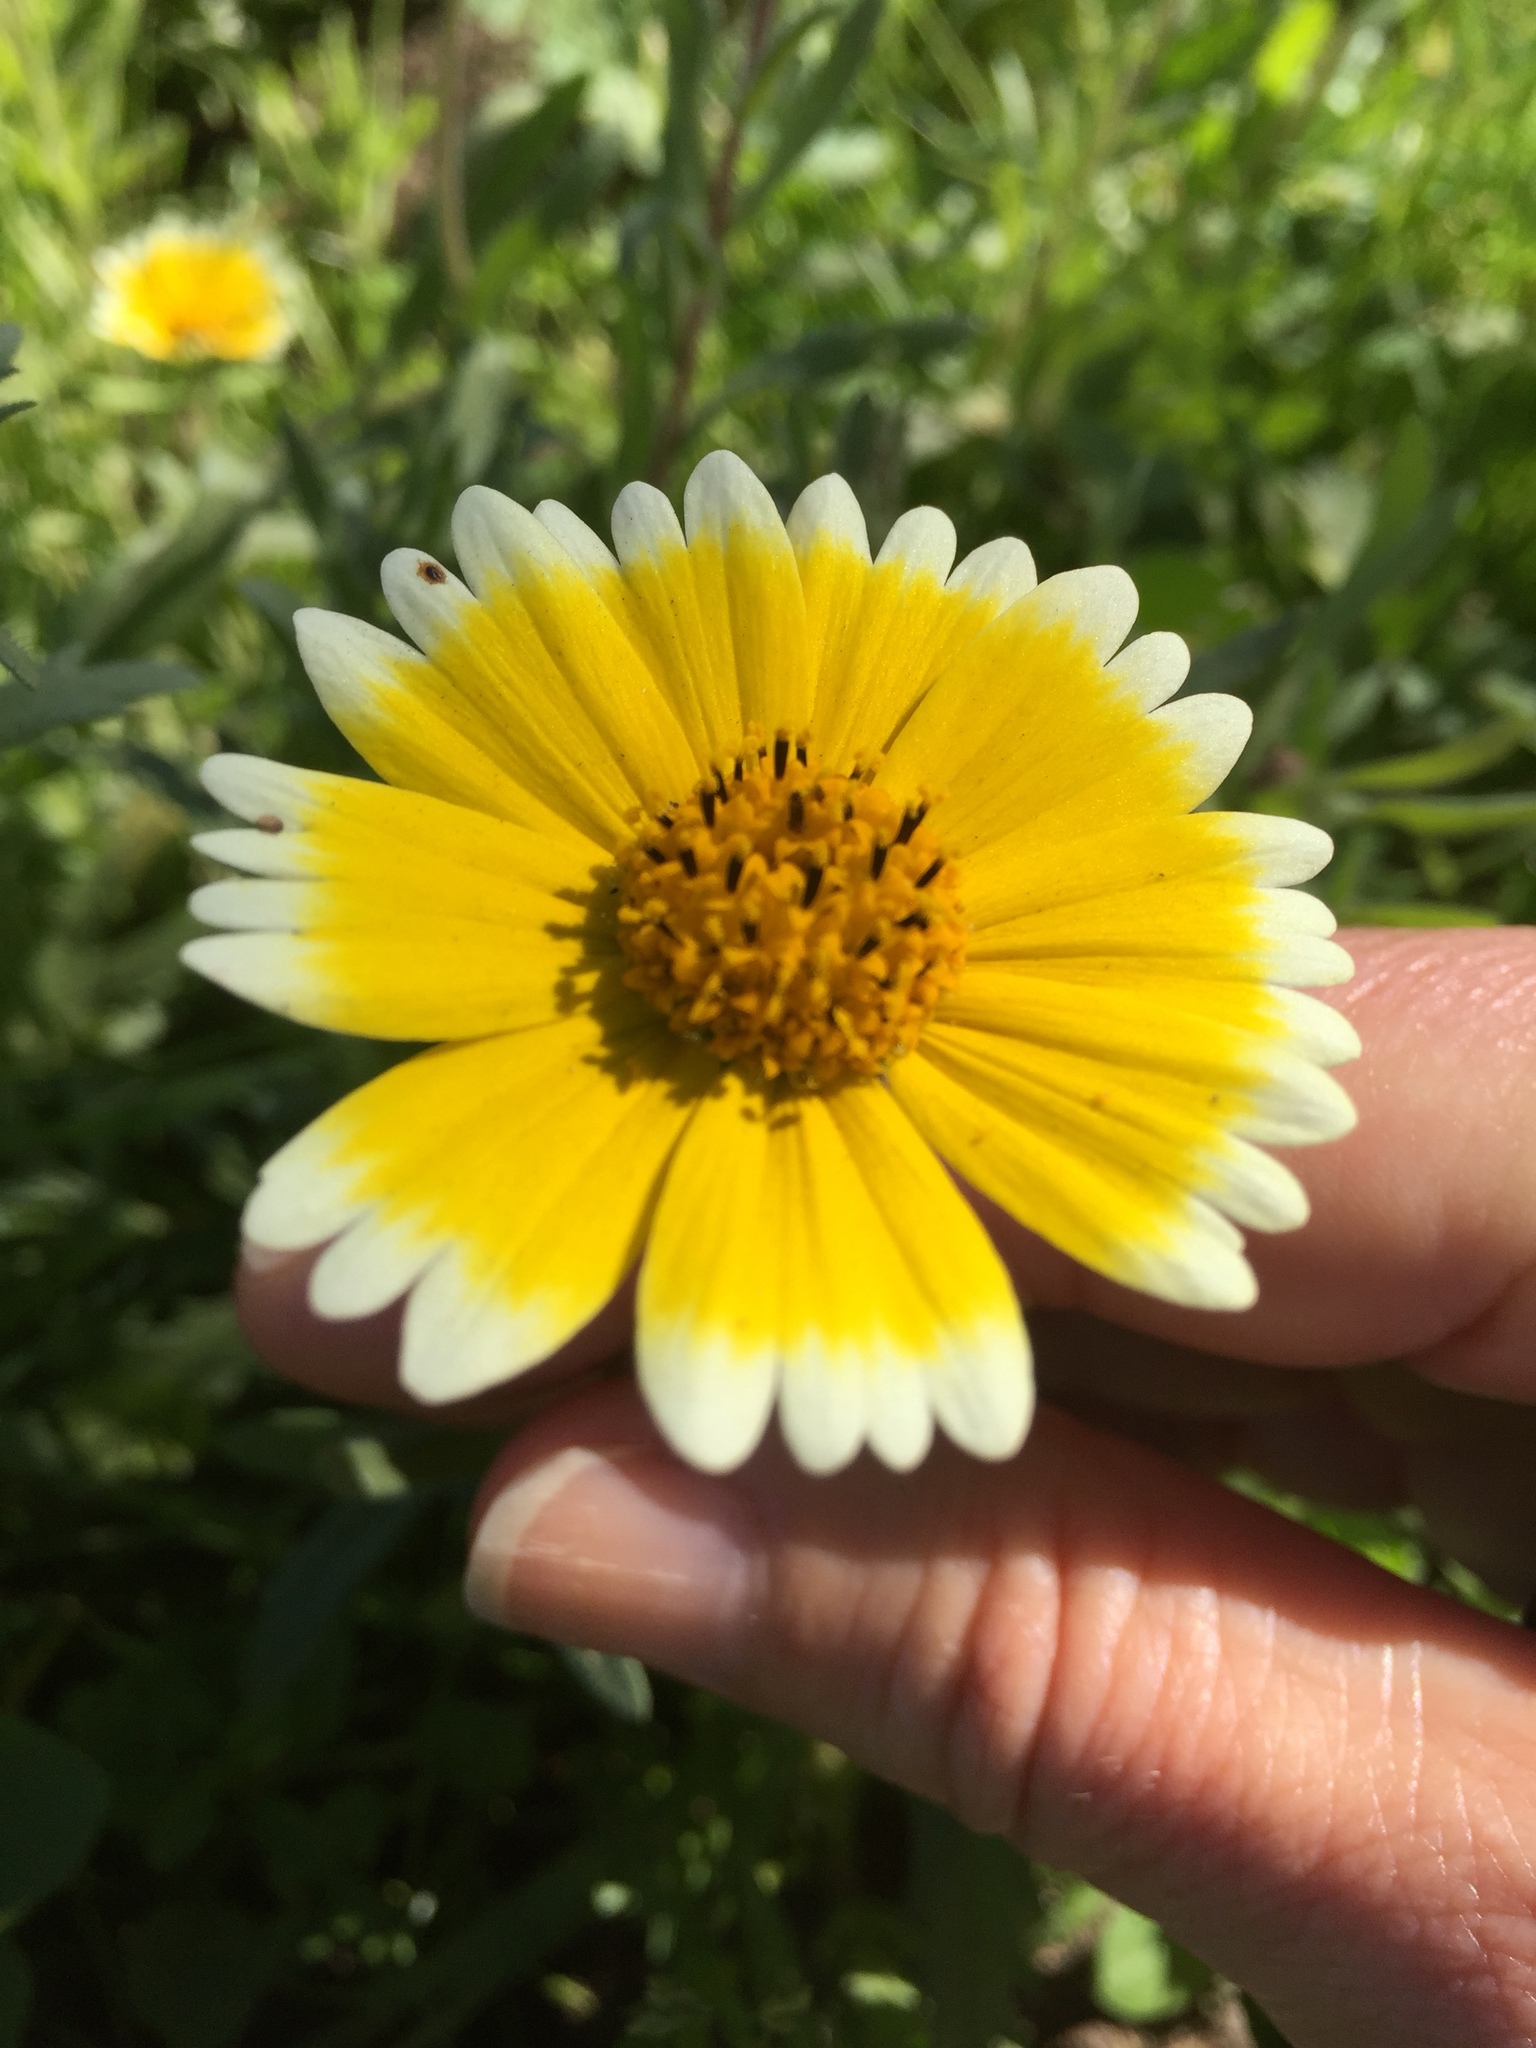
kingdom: Plantae
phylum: Tracheophyta
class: Magnoliopsida
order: Asterales
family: Asteraceae
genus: Layia
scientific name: Layia platyglossa
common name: Tidy-tips
